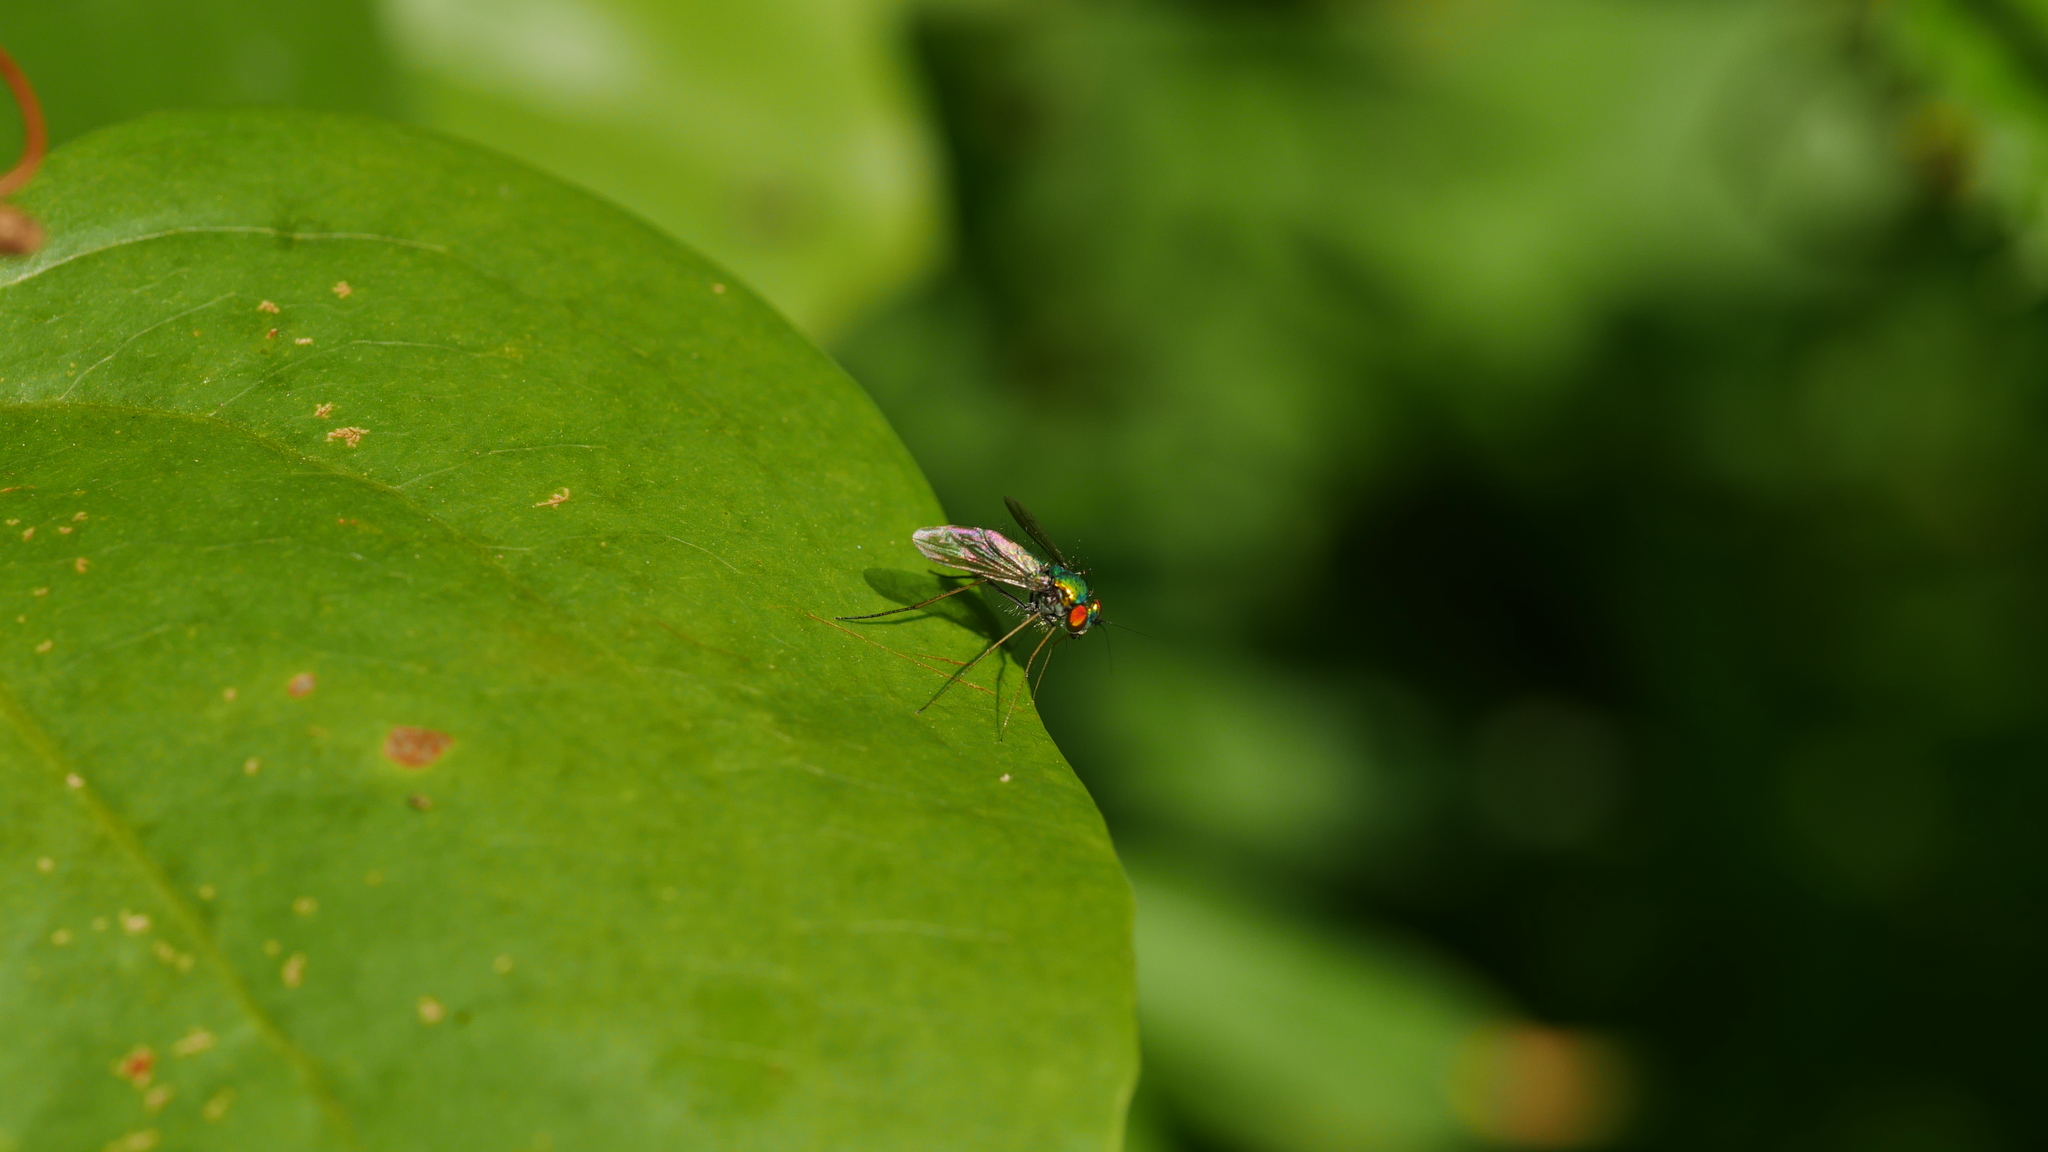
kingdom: Animalia
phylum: Arthropoda
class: Insecta
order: Diptera
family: Dolichopodidae
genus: Condylostylus
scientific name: Condylostylus
